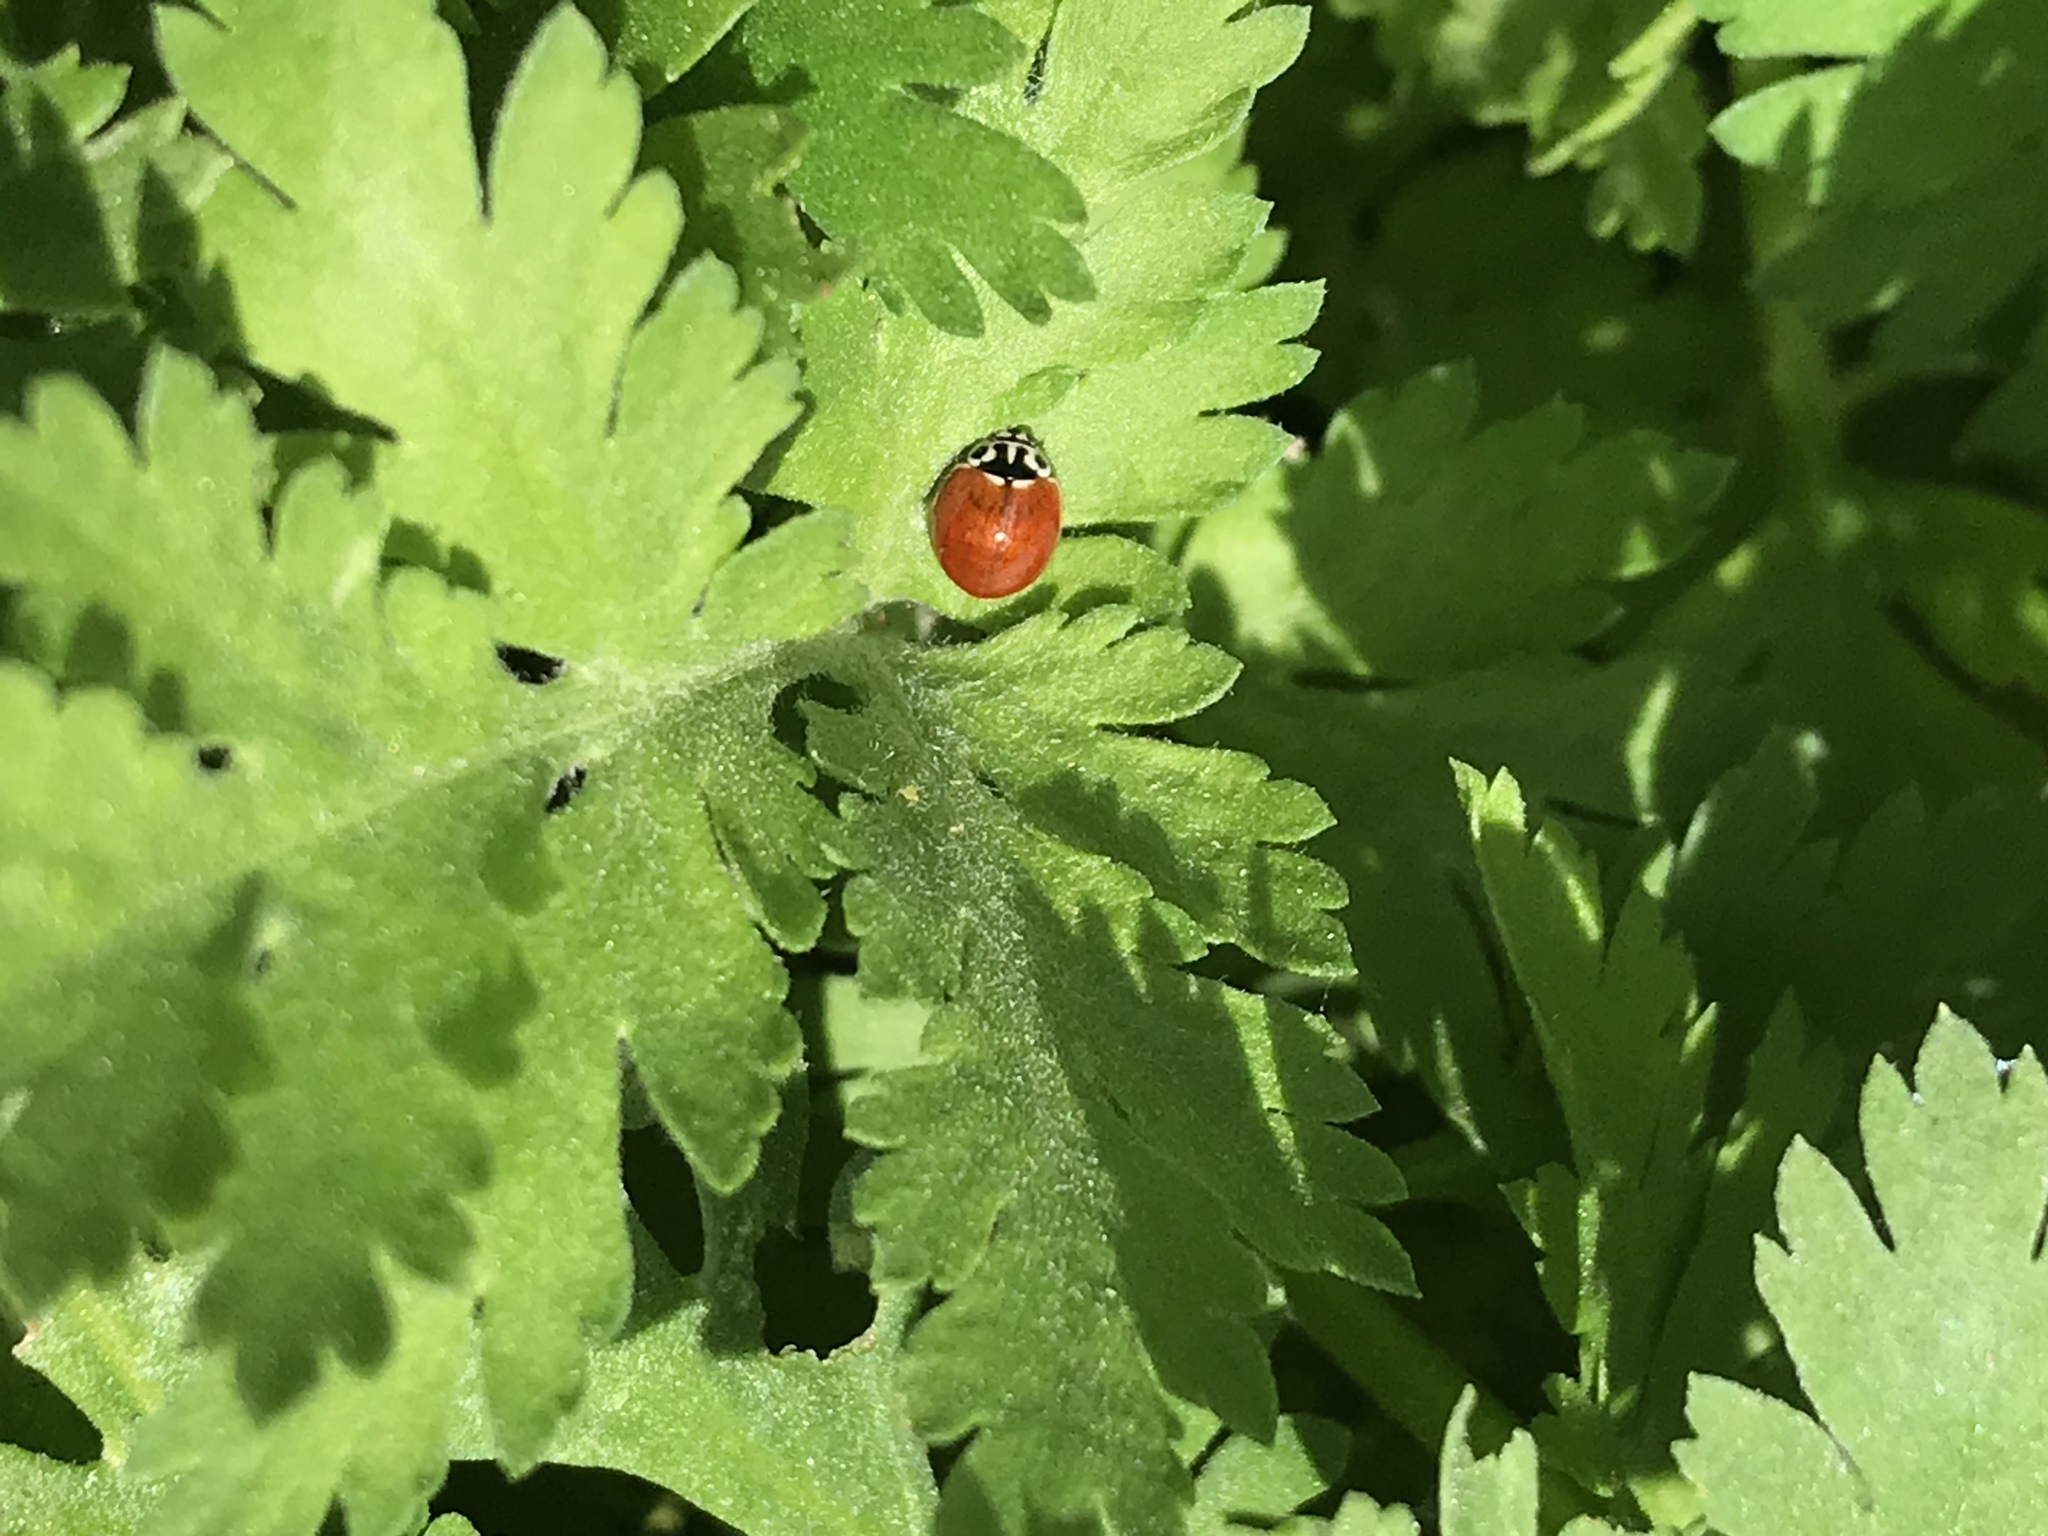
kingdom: Animalia
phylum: Arthropoda
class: Insecta
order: Coleoptera
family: Coccinellidae
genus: Cycloneda
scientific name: Cycloneda polita
